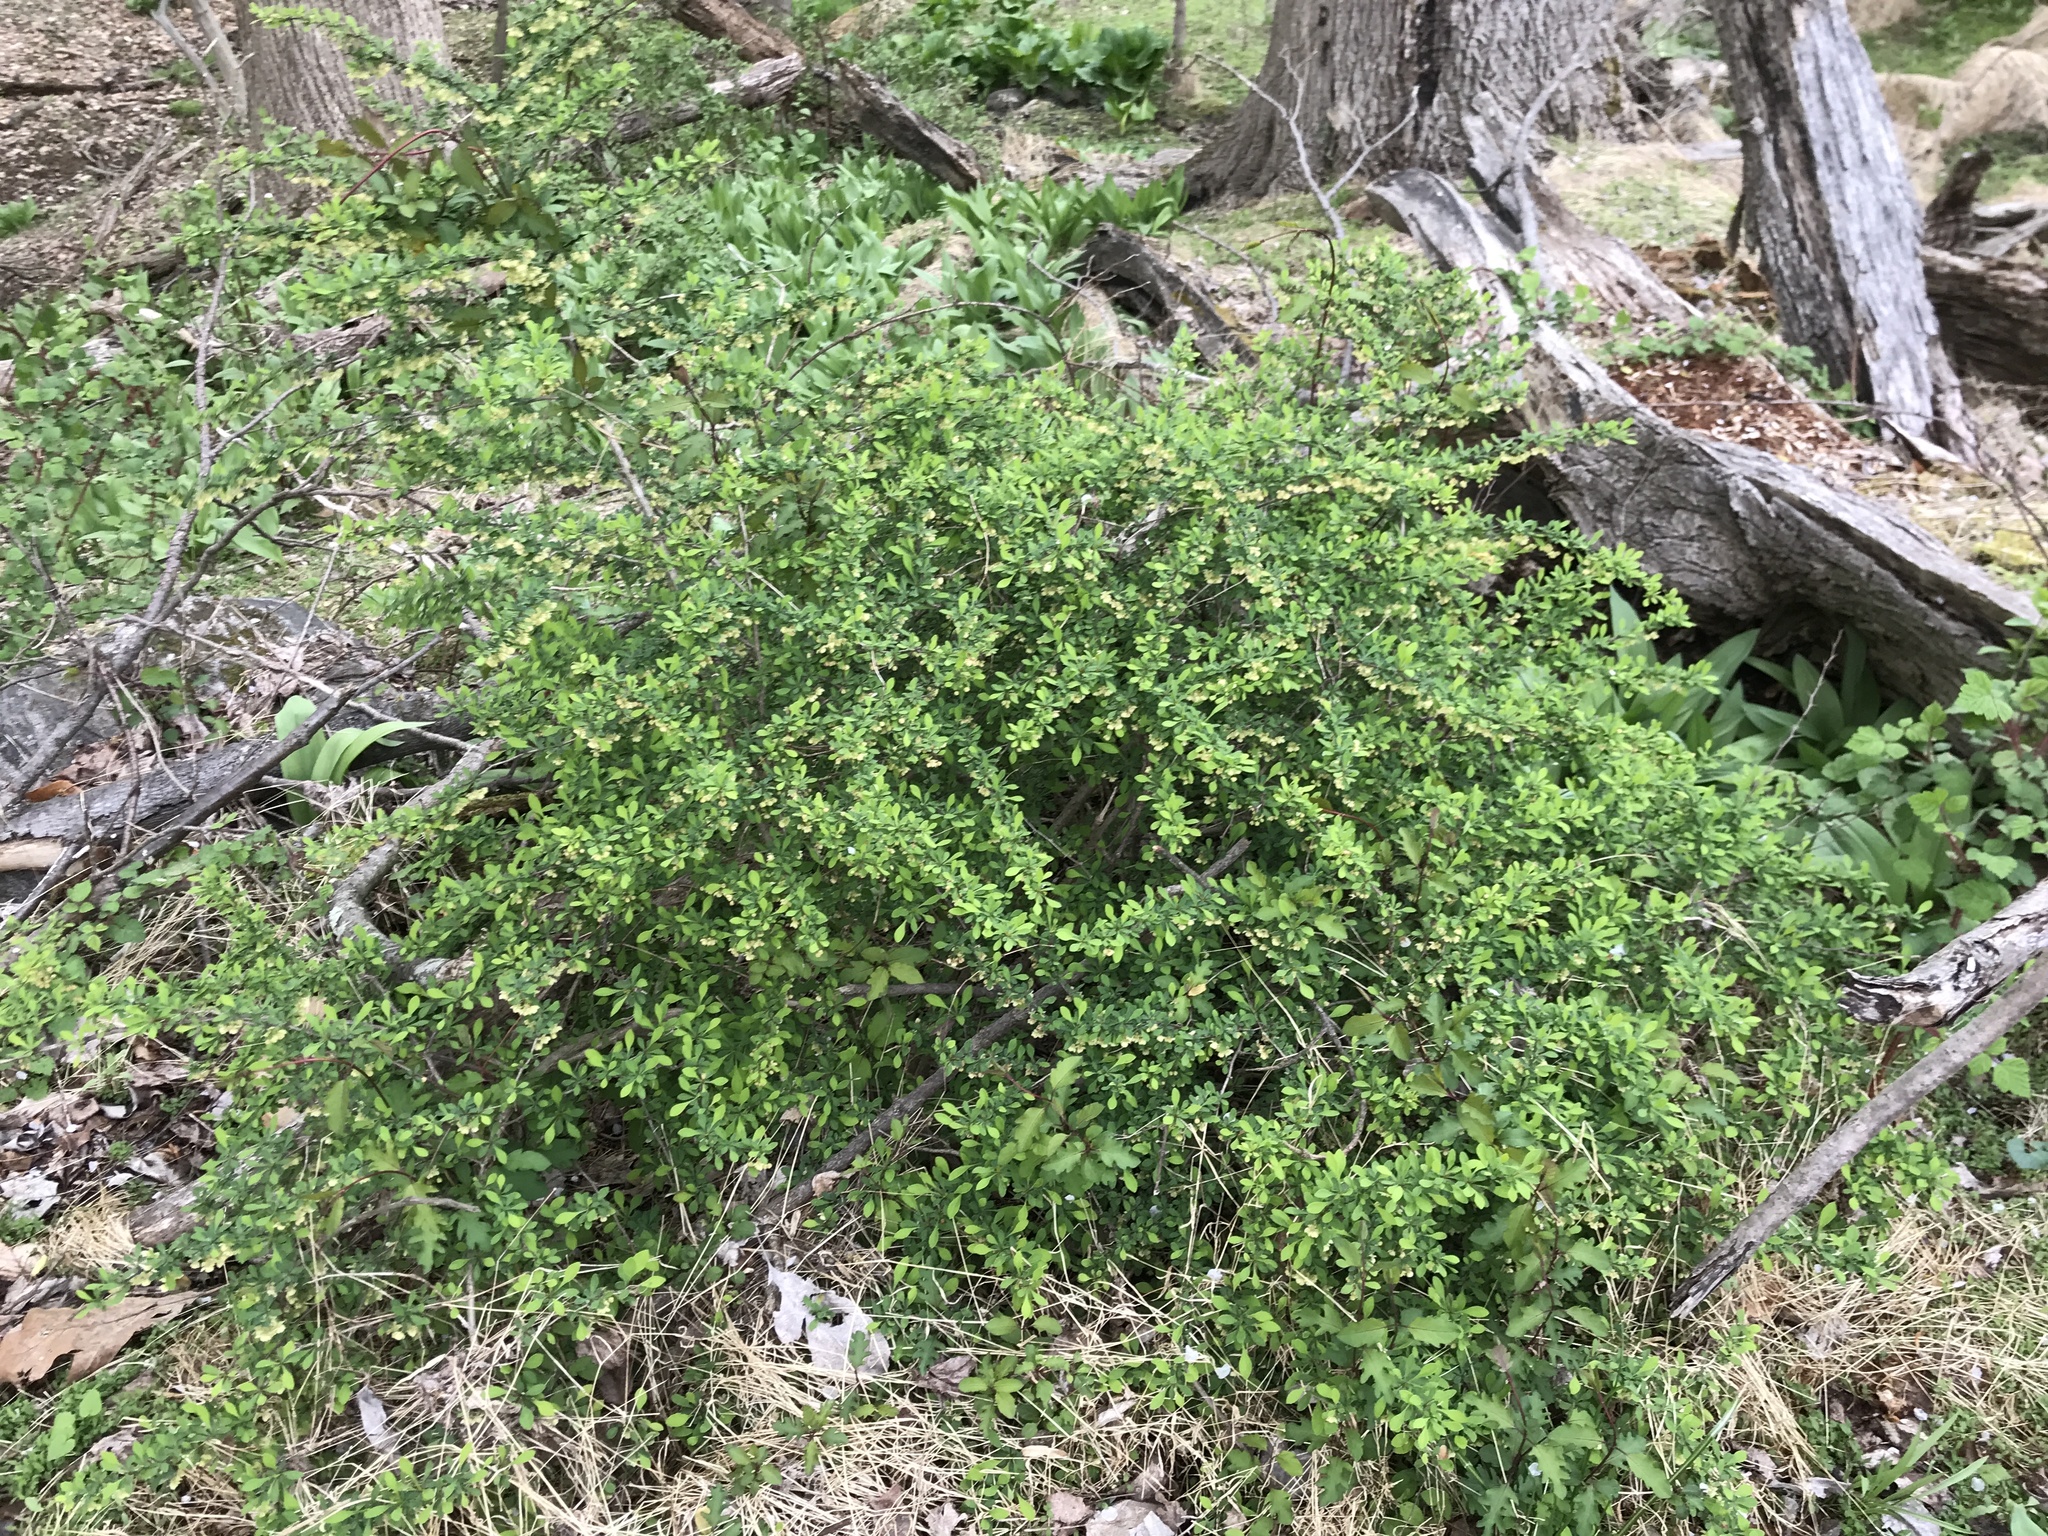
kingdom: Plantae
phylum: Tracheophyta
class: Magnoliopsida
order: Ranunculales
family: Berberidaceae
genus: Berberis
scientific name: Berberis thunbergii
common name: Japanese barberry
